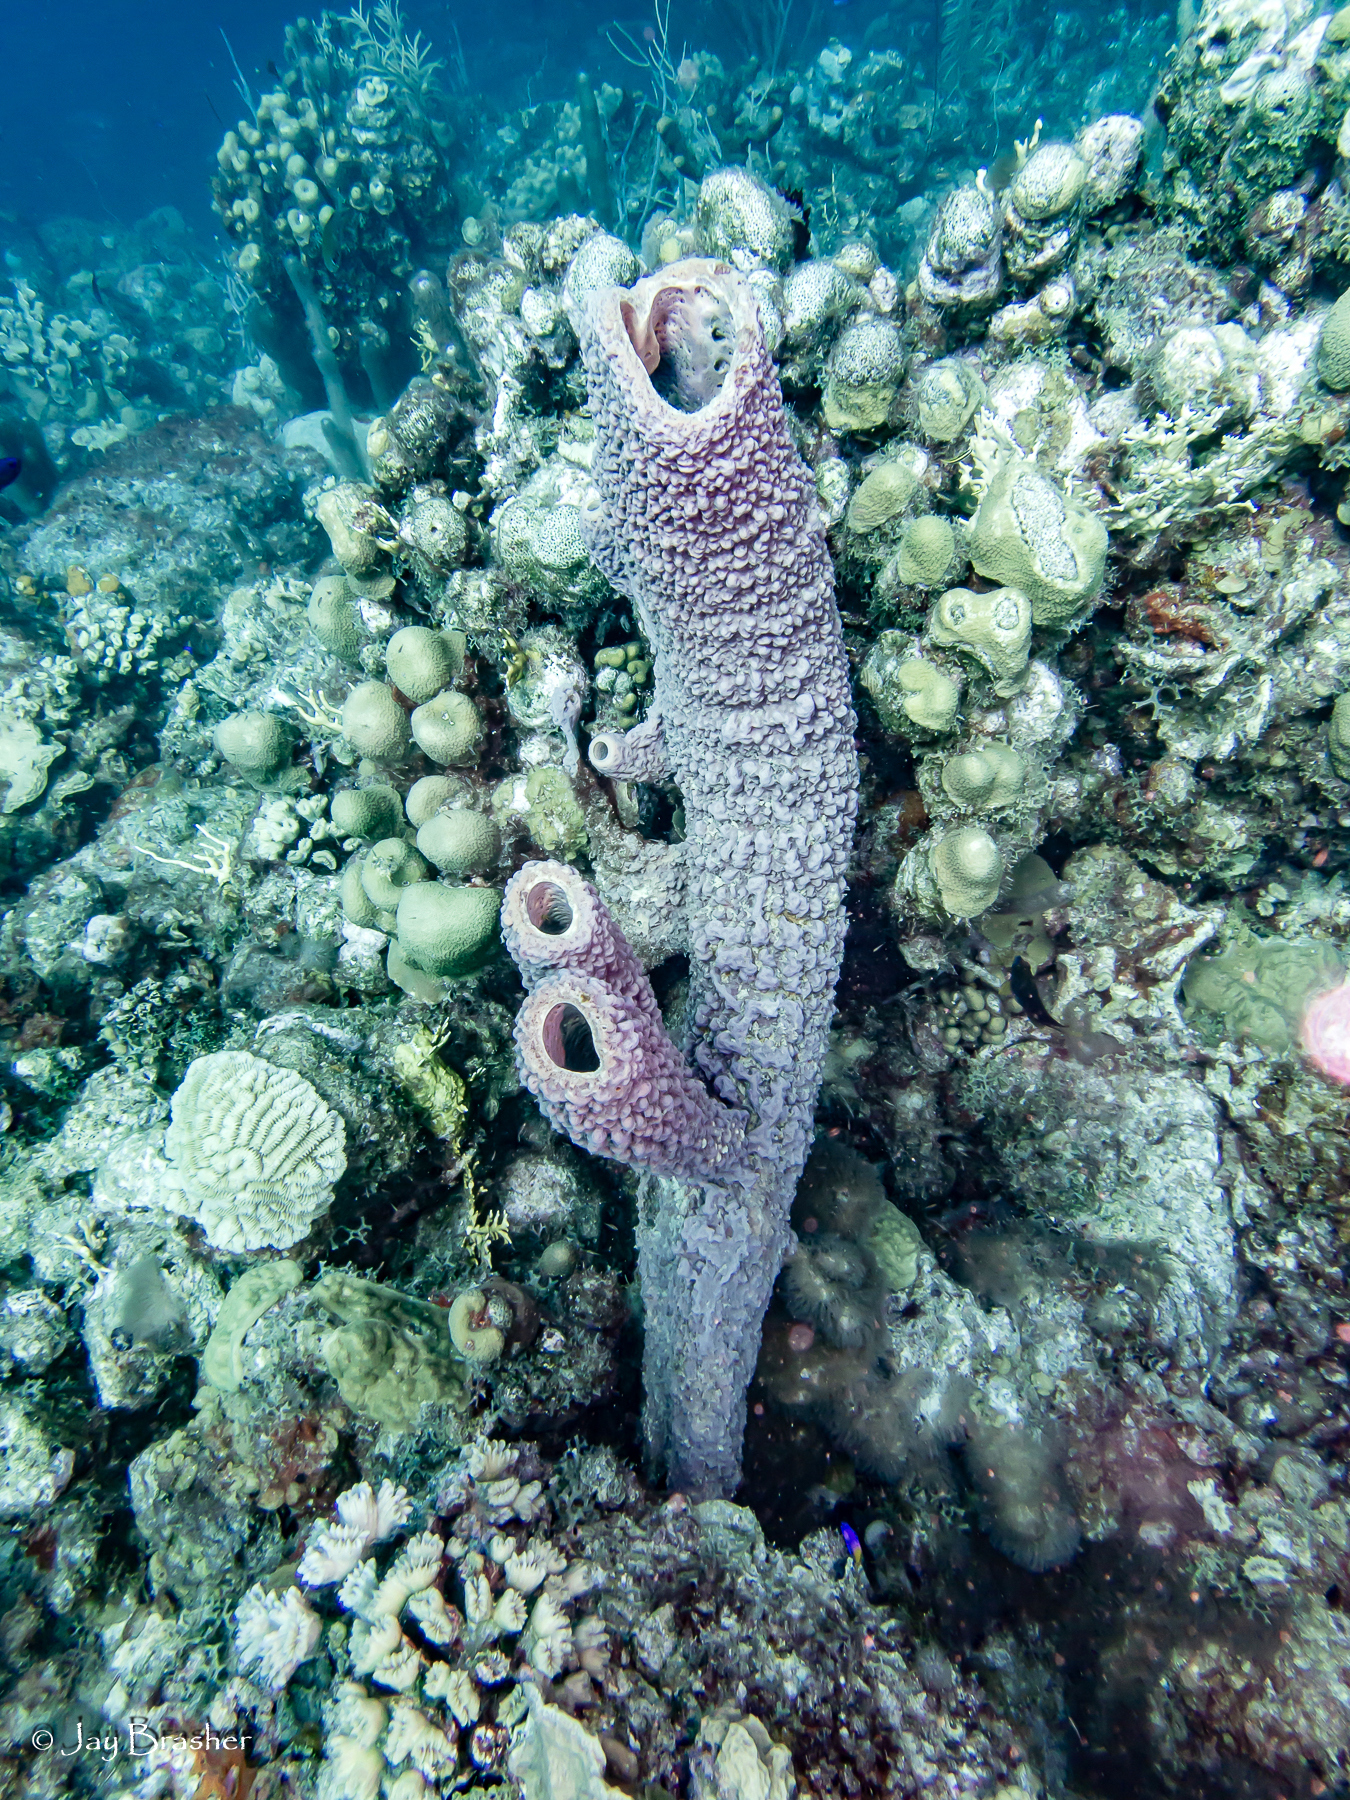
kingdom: Animalia
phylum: Porifera
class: Demospongiae
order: Verongiida
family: Aplysinidae
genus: Aplysina
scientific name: Aplysina archeri
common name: Stove-pipe sponge
